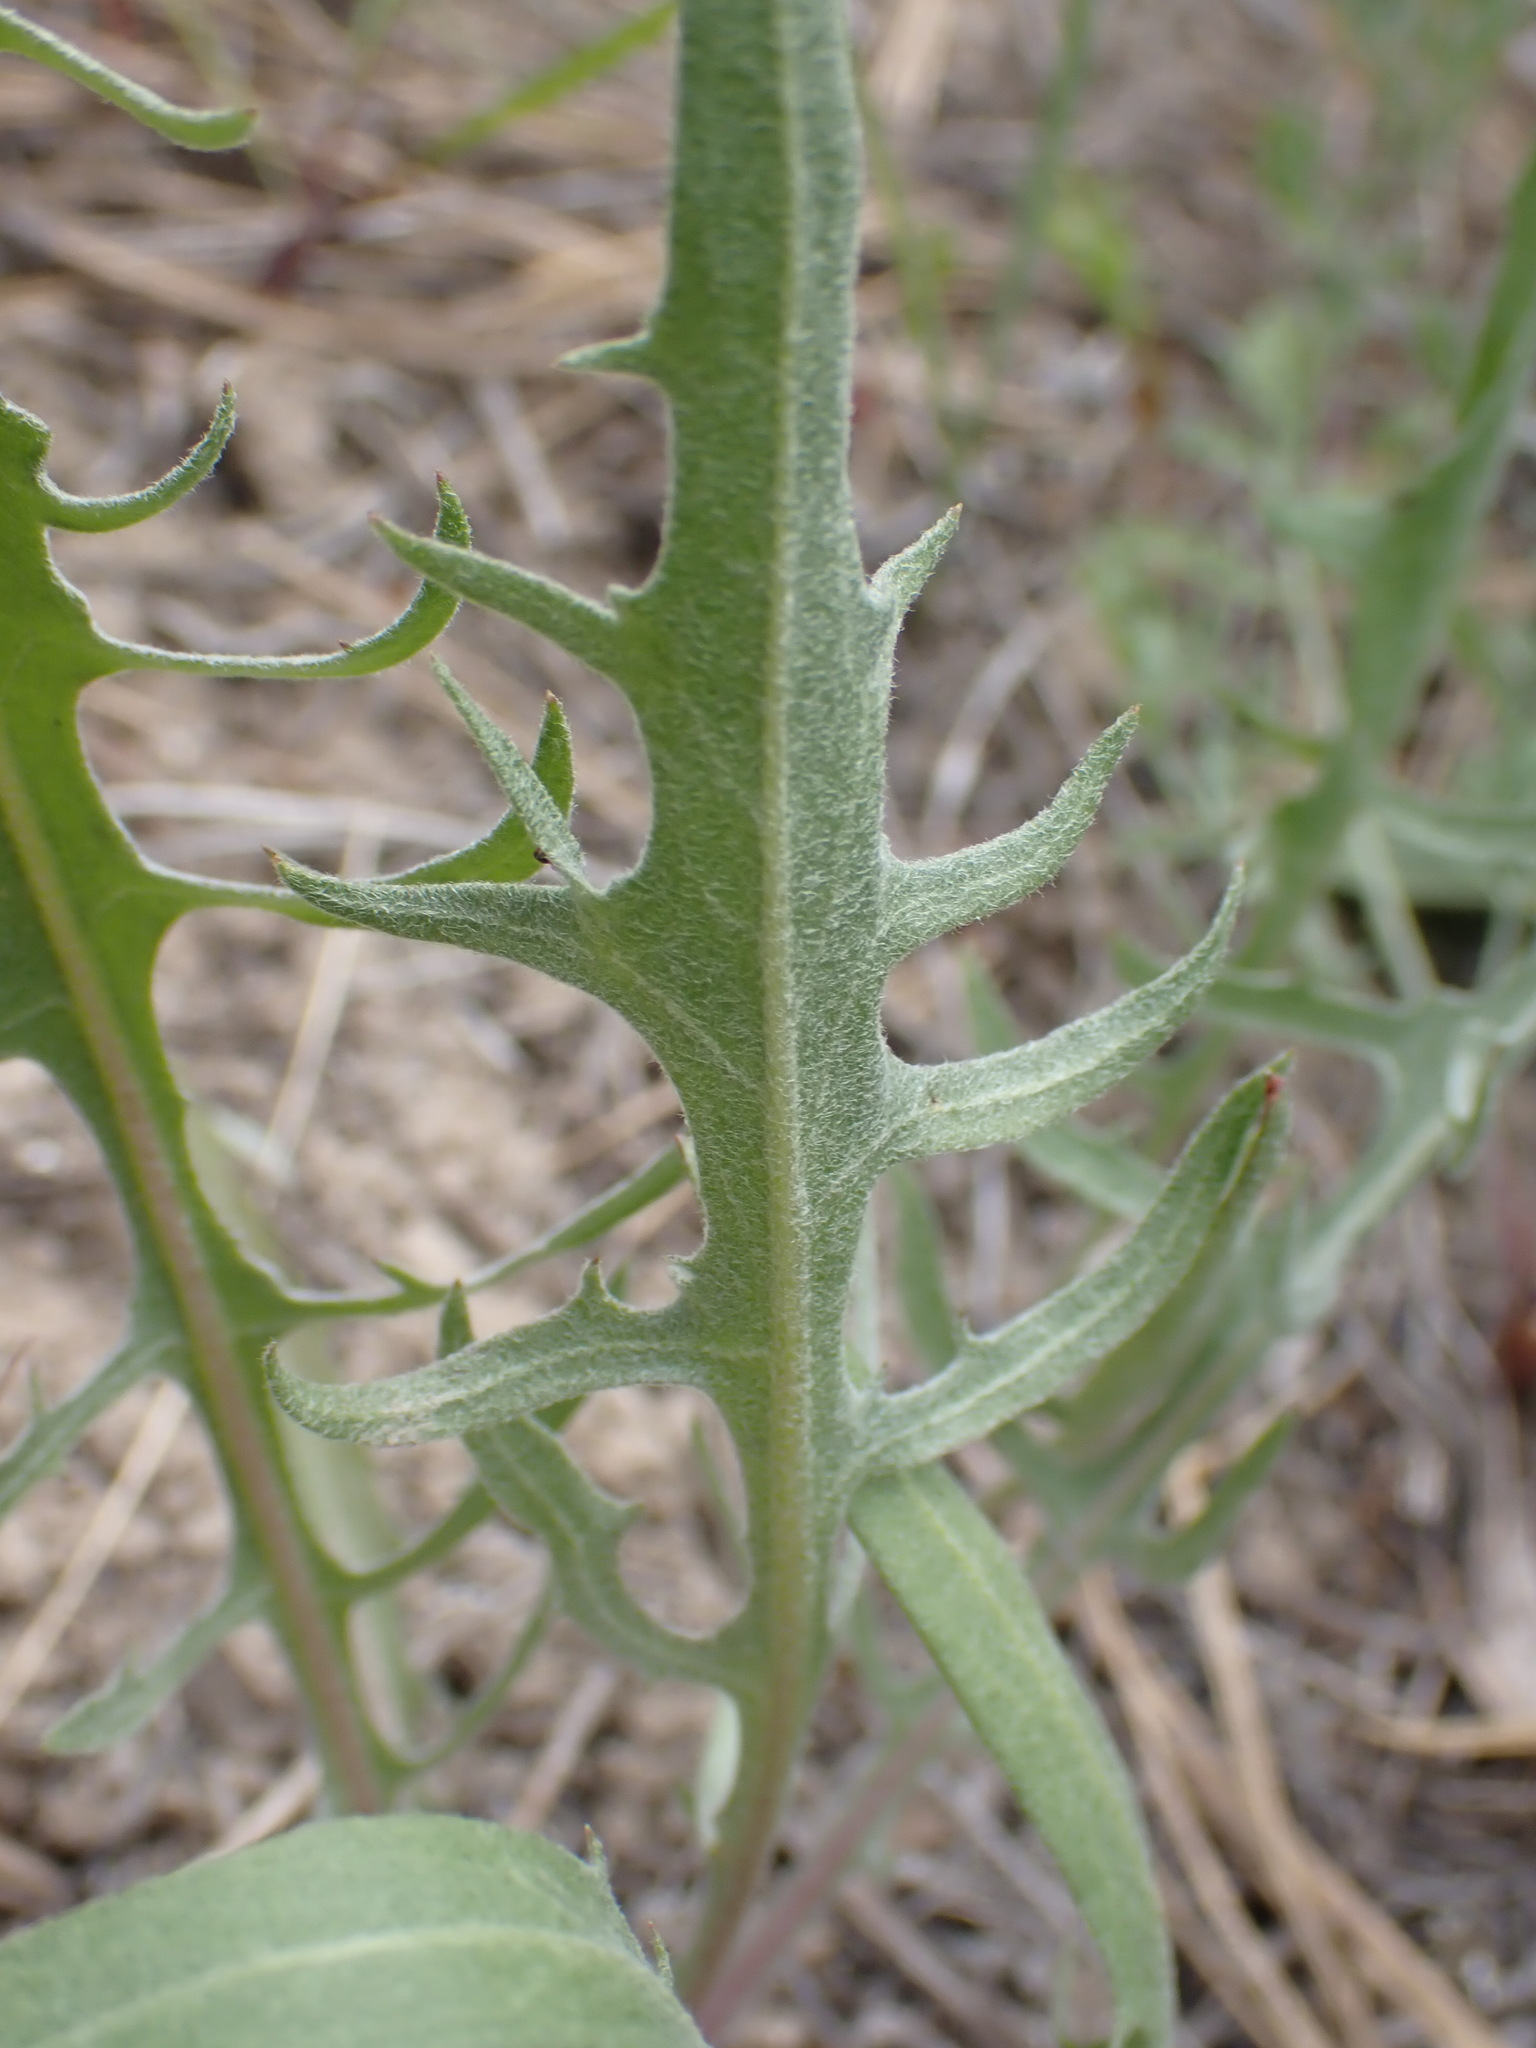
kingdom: Plantae
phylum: Tracheophyta
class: Magnoliopsida
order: Asterales
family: Asteraceae
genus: Crepis
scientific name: Crepis atribarba
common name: Dark hawk's-beard
